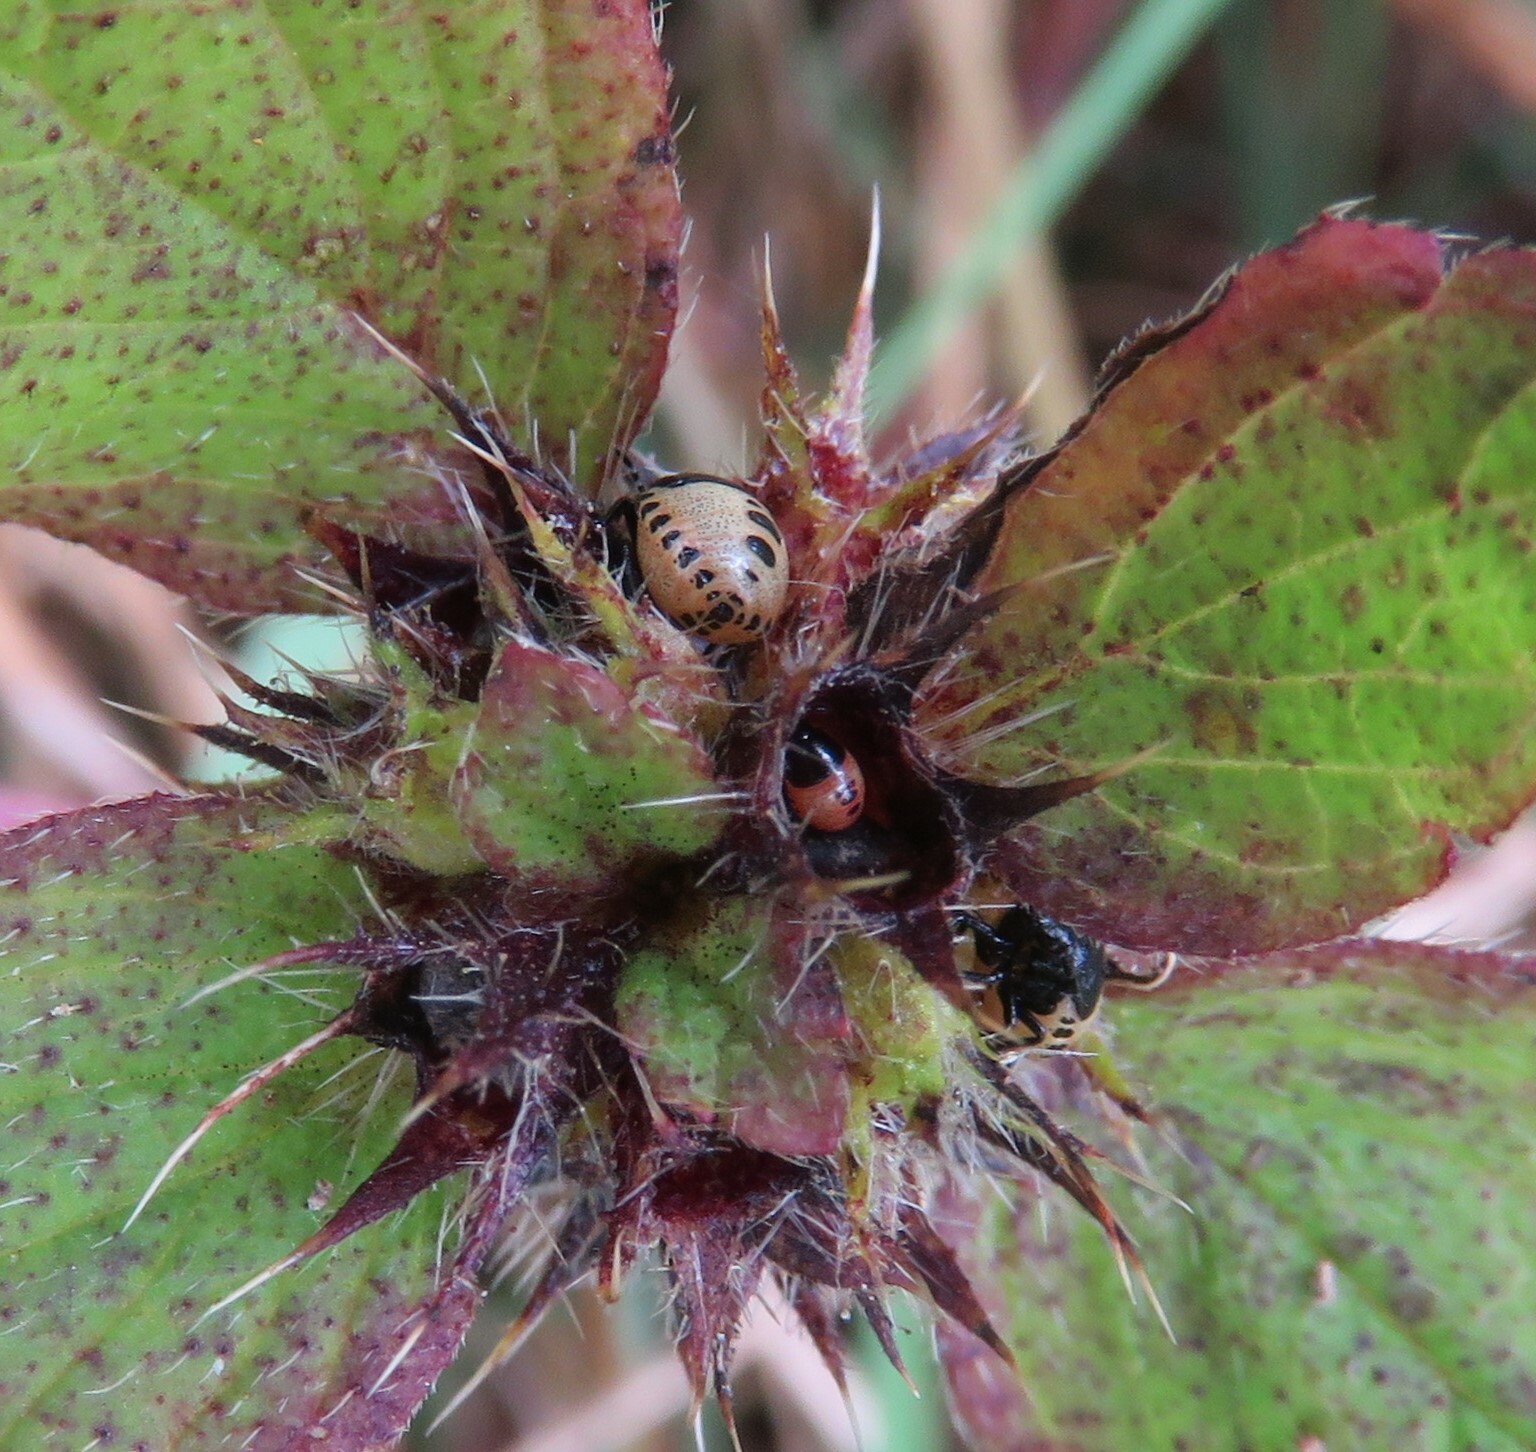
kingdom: Animalia
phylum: Arthropoda
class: Insecta
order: Hemiptera
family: Pentatomidae
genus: Cosmopepla
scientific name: Cosmopepla lintneriana
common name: Twice-stabbed stink bug
